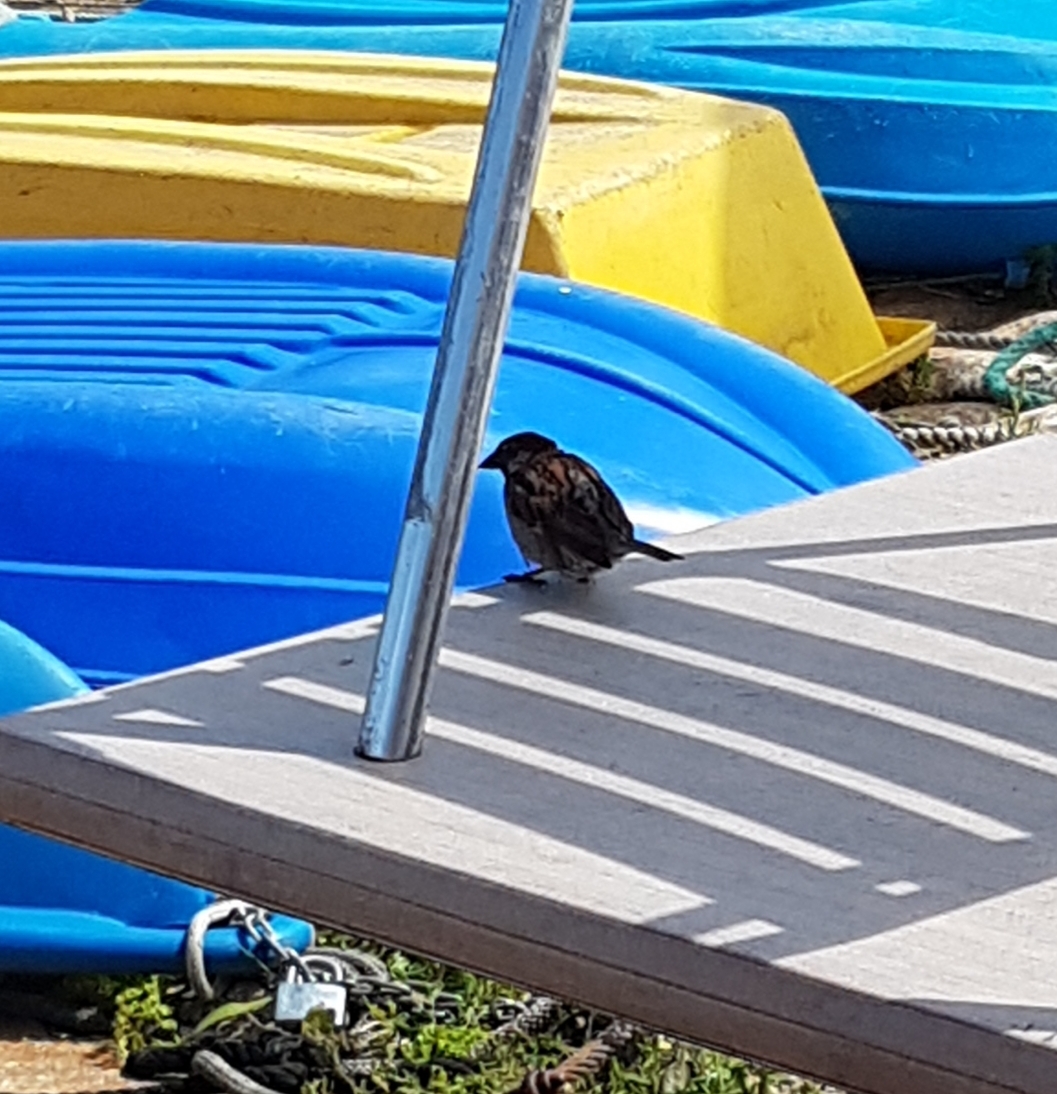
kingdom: Animalia
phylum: Chordata
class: Aves
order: Passeriformes
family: Passeridae
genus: Passer
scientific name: Passer domesticus
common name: House sparrow
